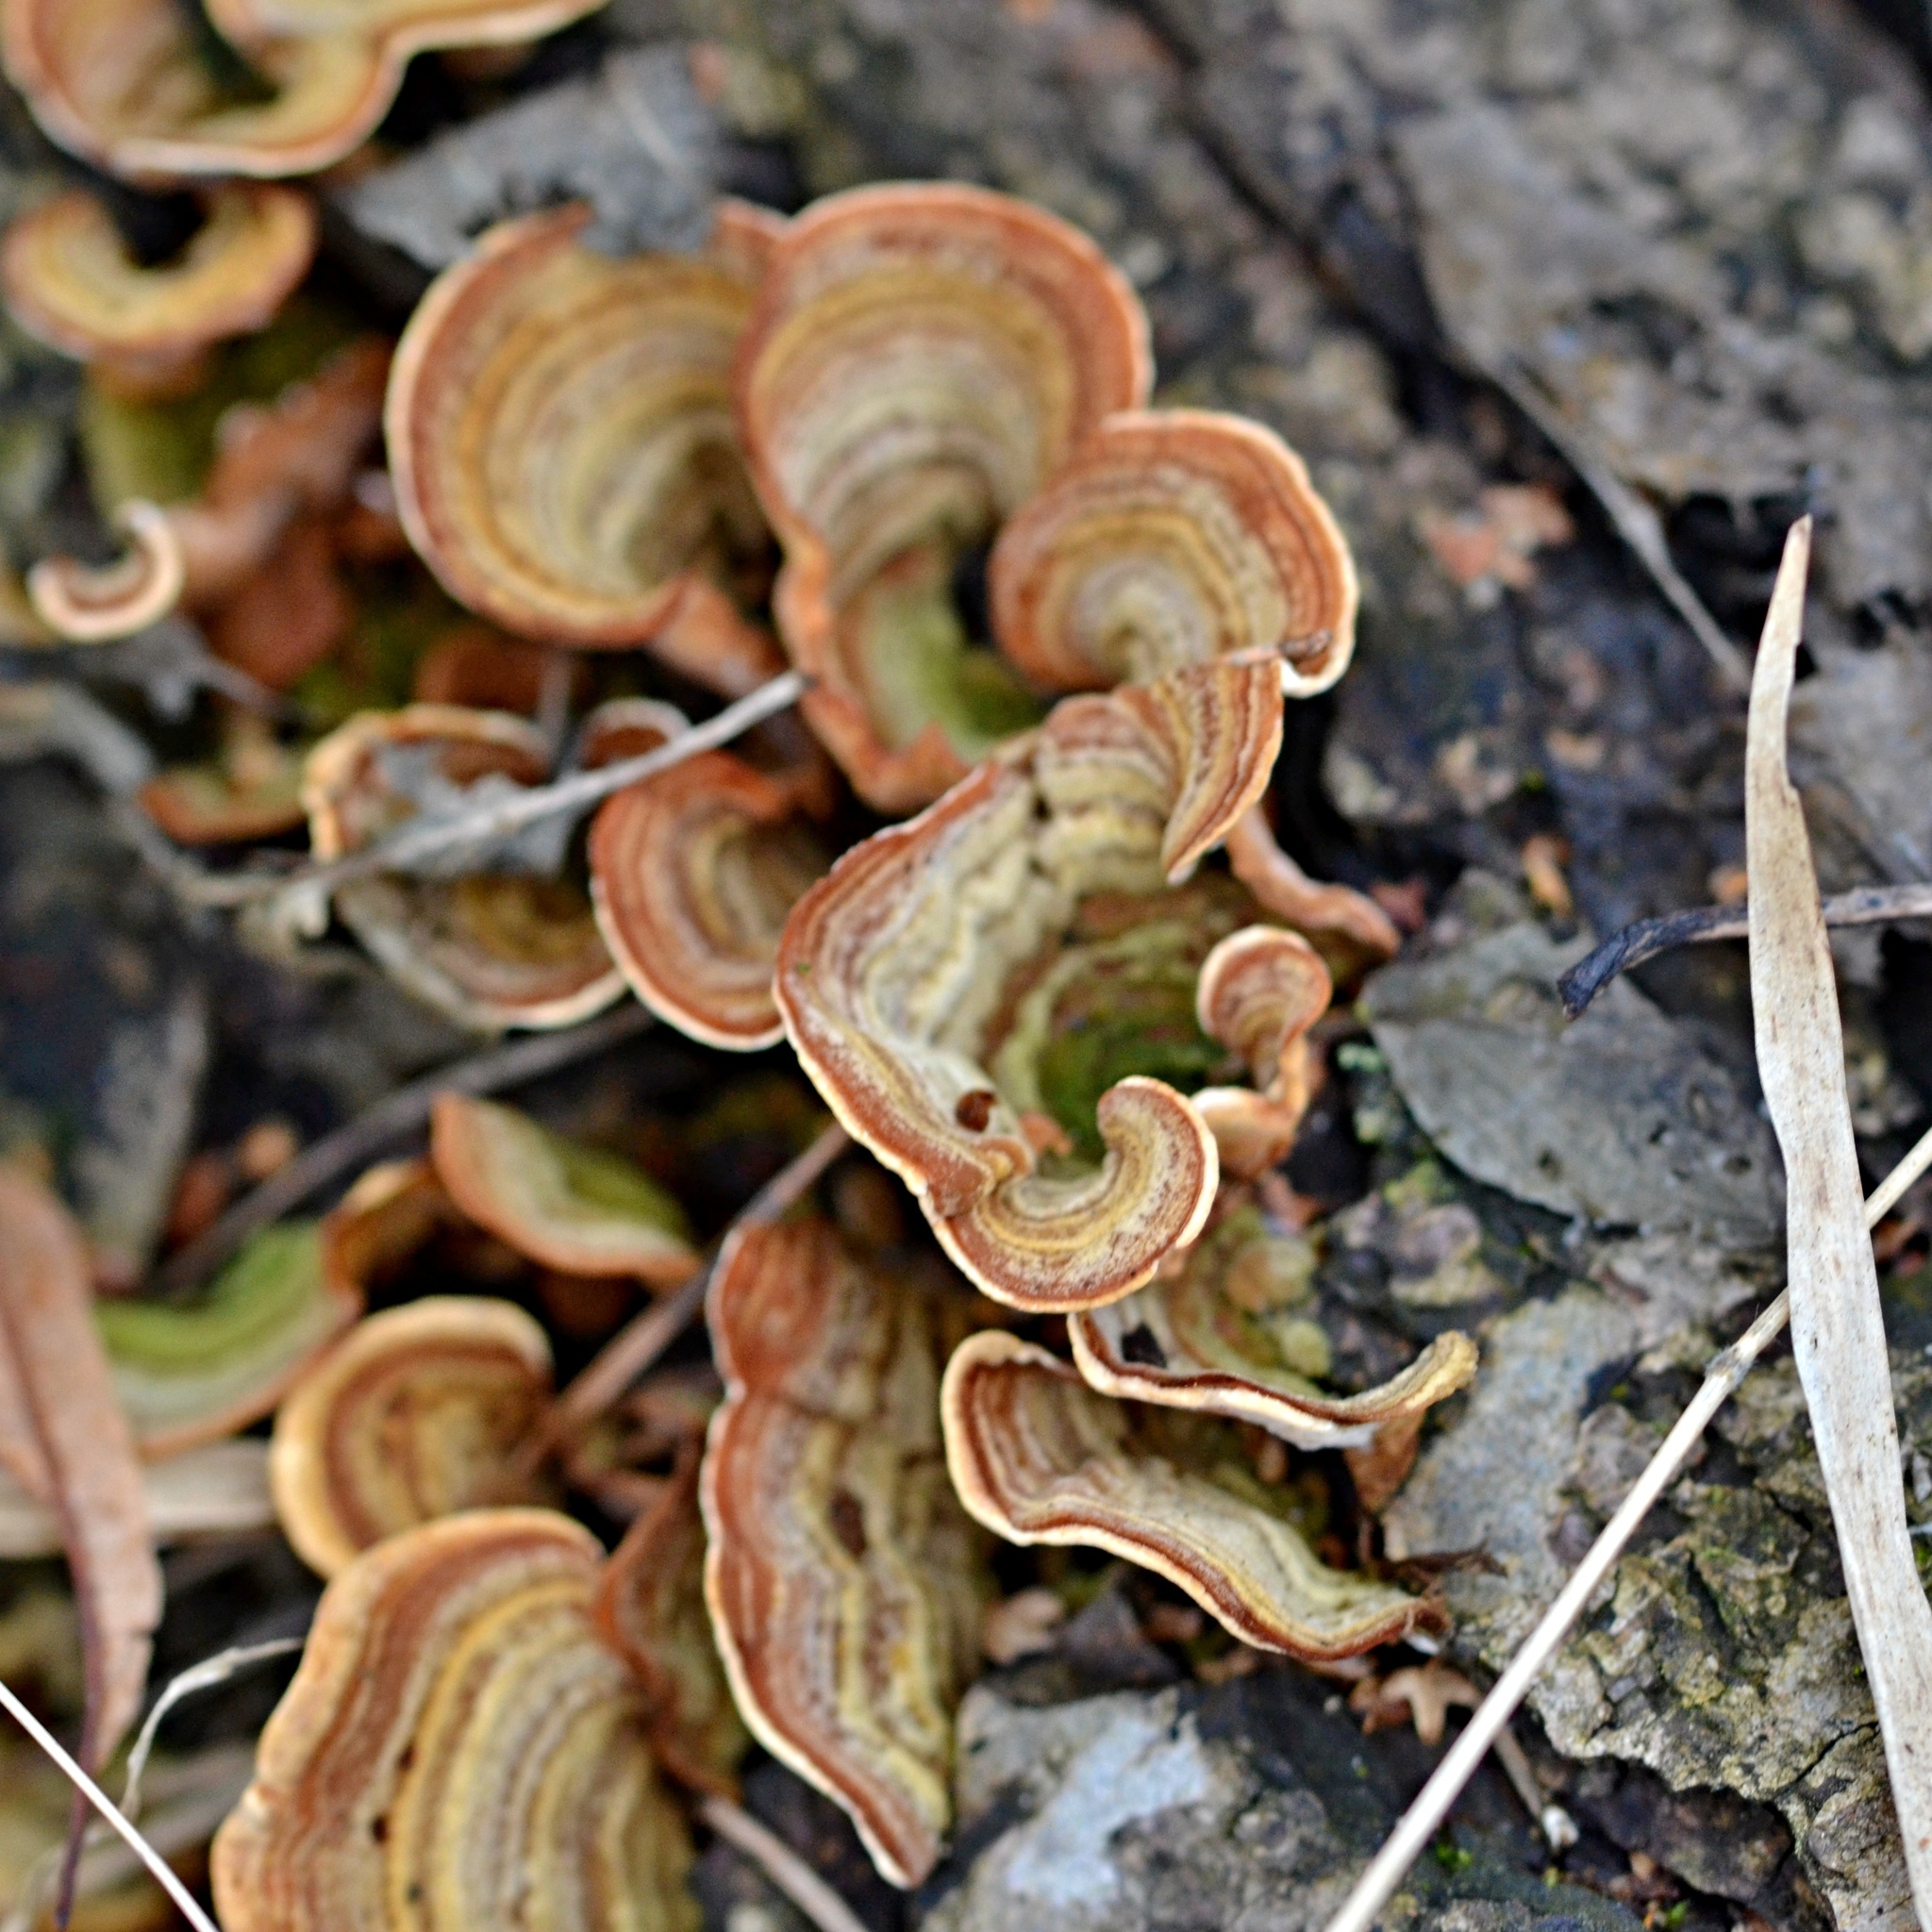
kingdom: Fungi
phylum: Basidiomycota
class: Agaricomycetes
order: Russulales
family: Stereaceae
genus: Stereum
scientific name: Stereum versicolor
